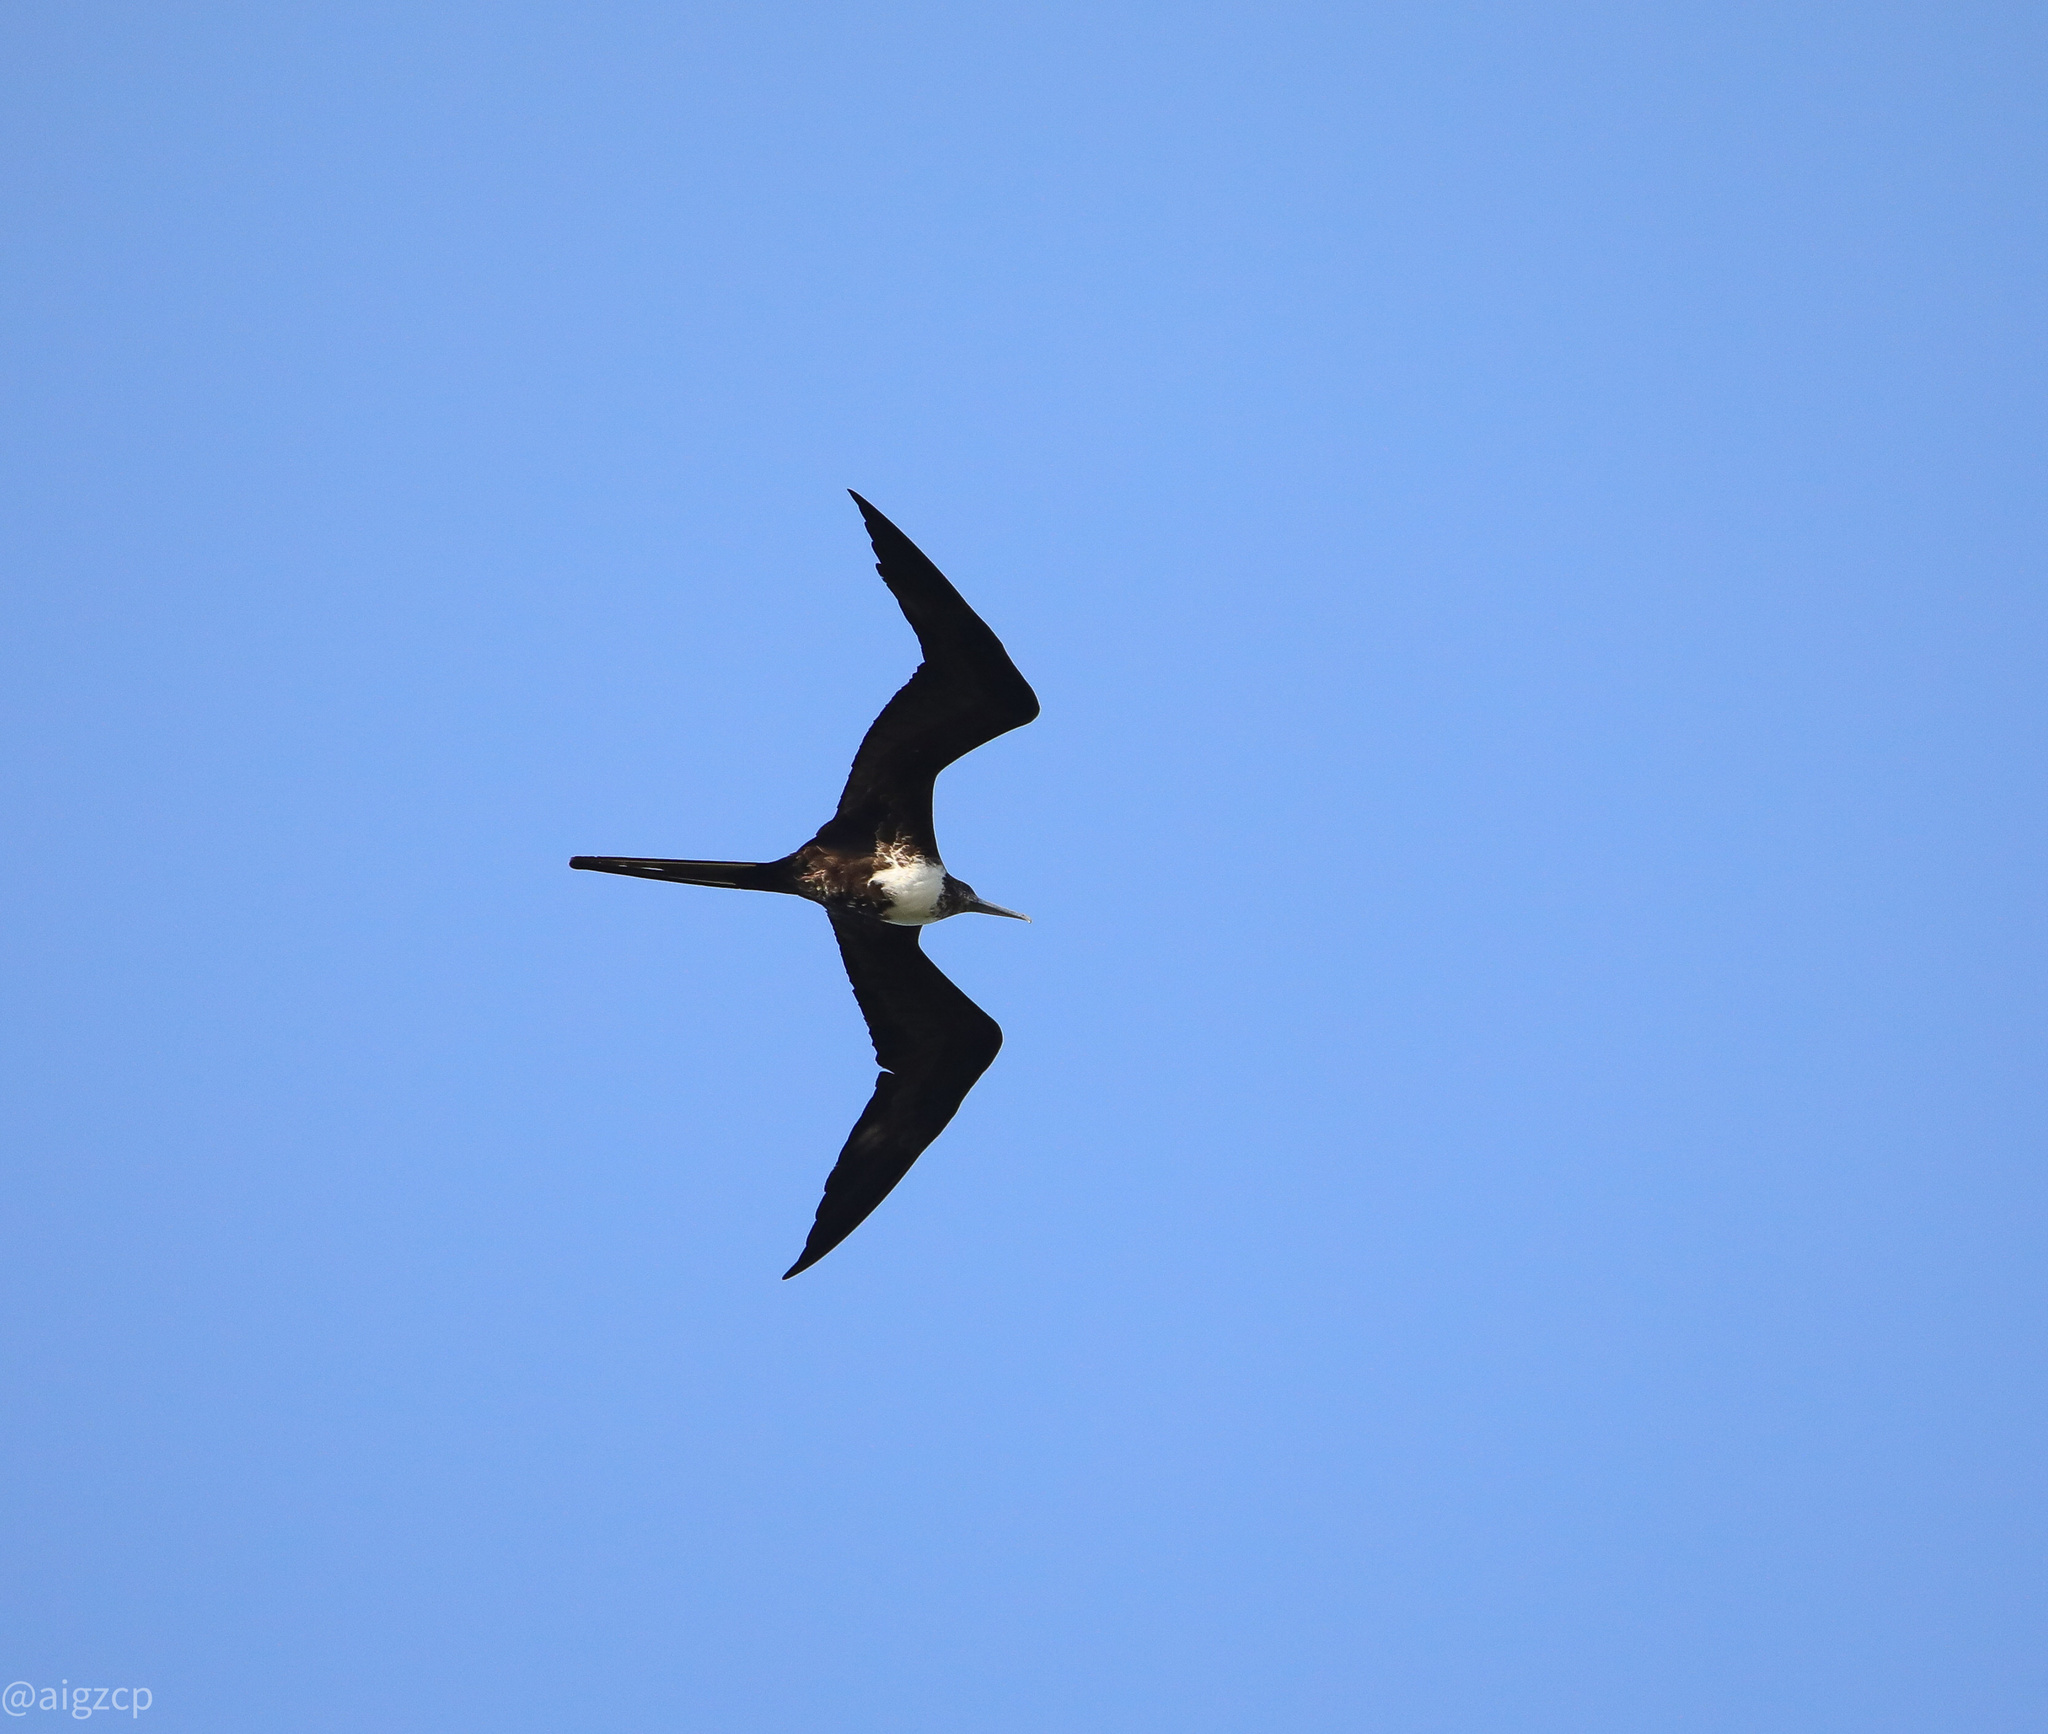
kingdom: Animalia
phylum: Chordata
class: Aves
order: Suliformes
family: Fregatidae
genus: Fregata
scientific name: Fregata magnificens
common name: Magnificent frigatebird
